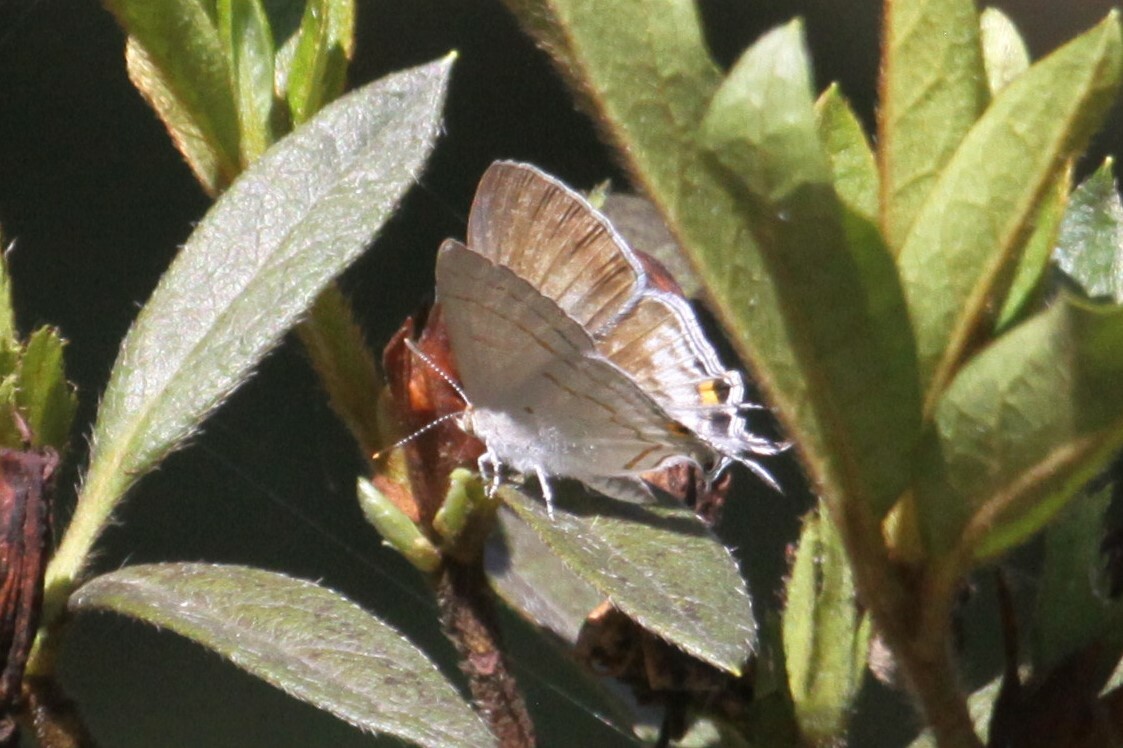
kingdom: Animalia
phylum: Arthropoda
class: Insecta
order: Lepidoptera
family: Lycaenidae
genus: Hypolycaena
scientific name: Hypolycaena philippus
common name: Common hairstreak
